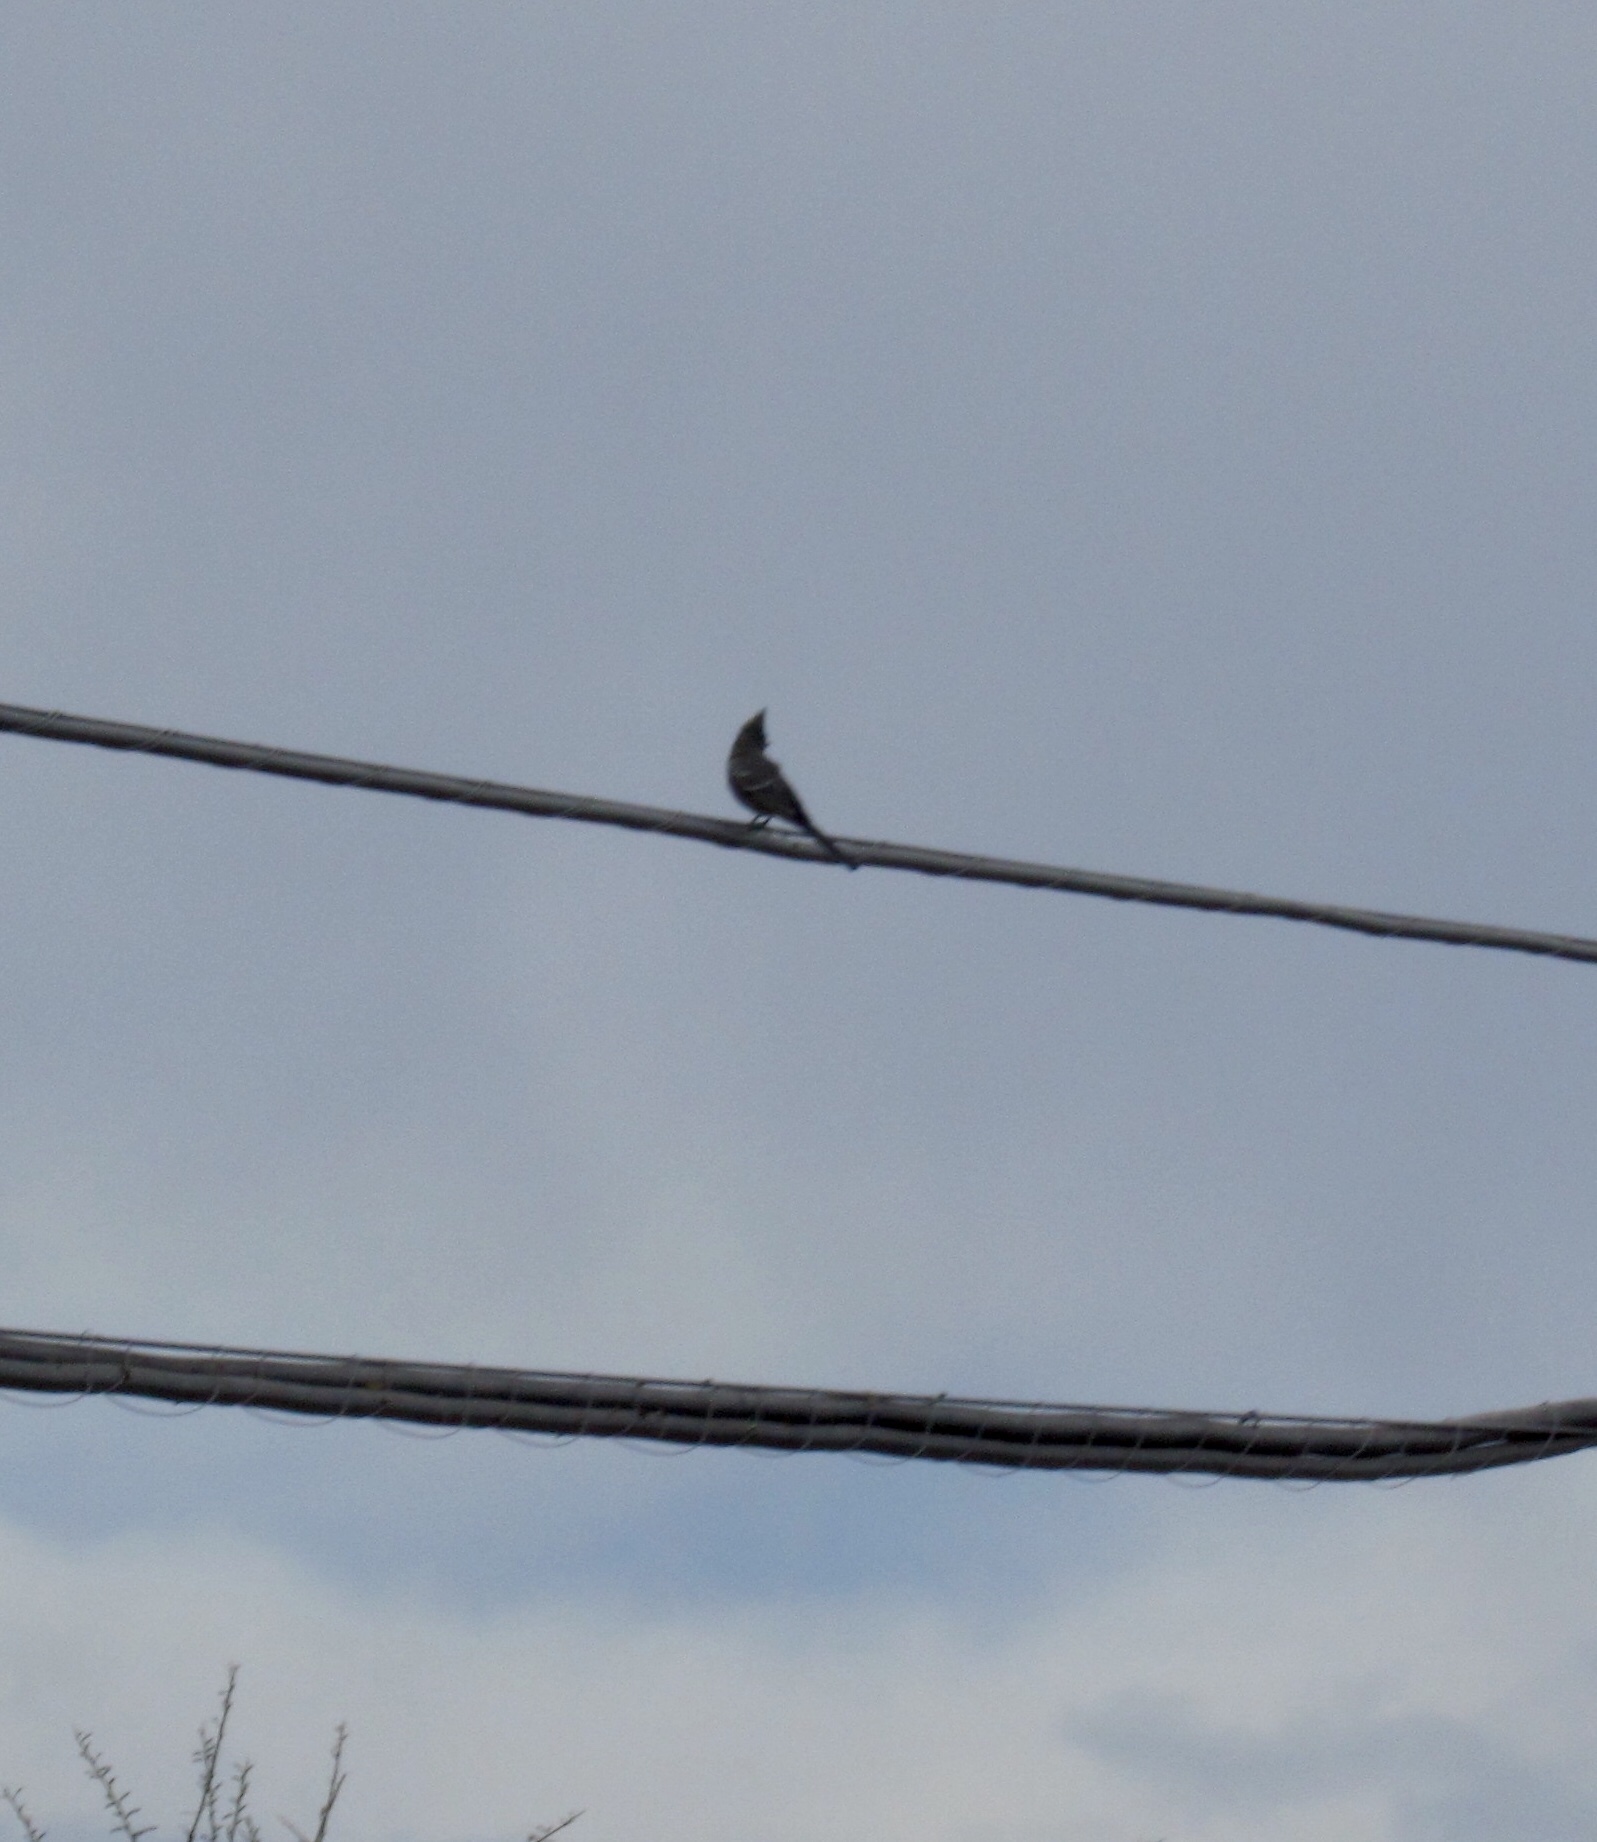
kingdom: Animalia
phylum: Chordata
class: Aves
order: Passeriformes
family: Ptilogonatidae
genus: Phainopepla
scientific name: Phainopepla nitens
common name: Phainopepla
